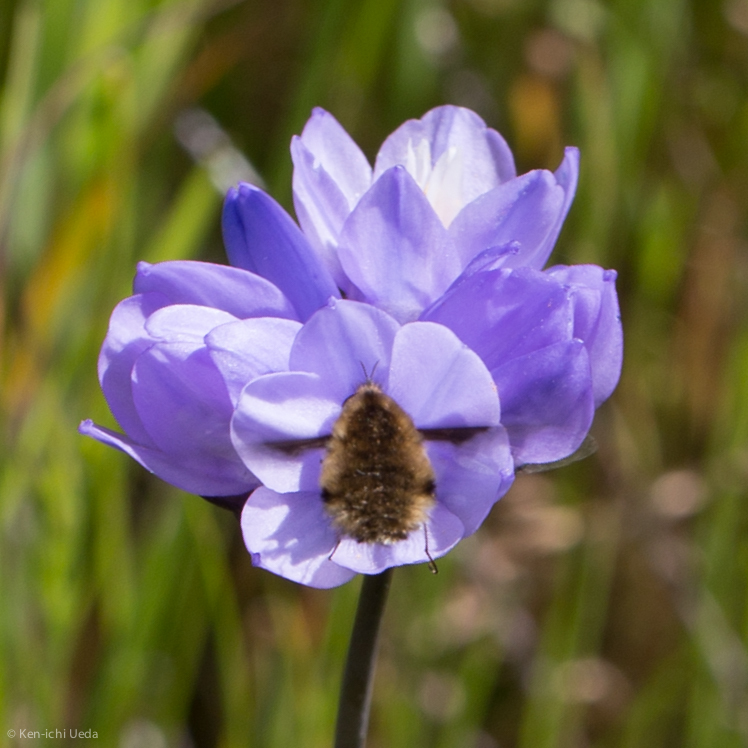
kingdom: Animalia
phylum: Arthropoda
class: Insecta
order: Diptera
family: Bombyliidae
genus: Bombylius
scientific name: Bombylius major
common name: Bee fly
